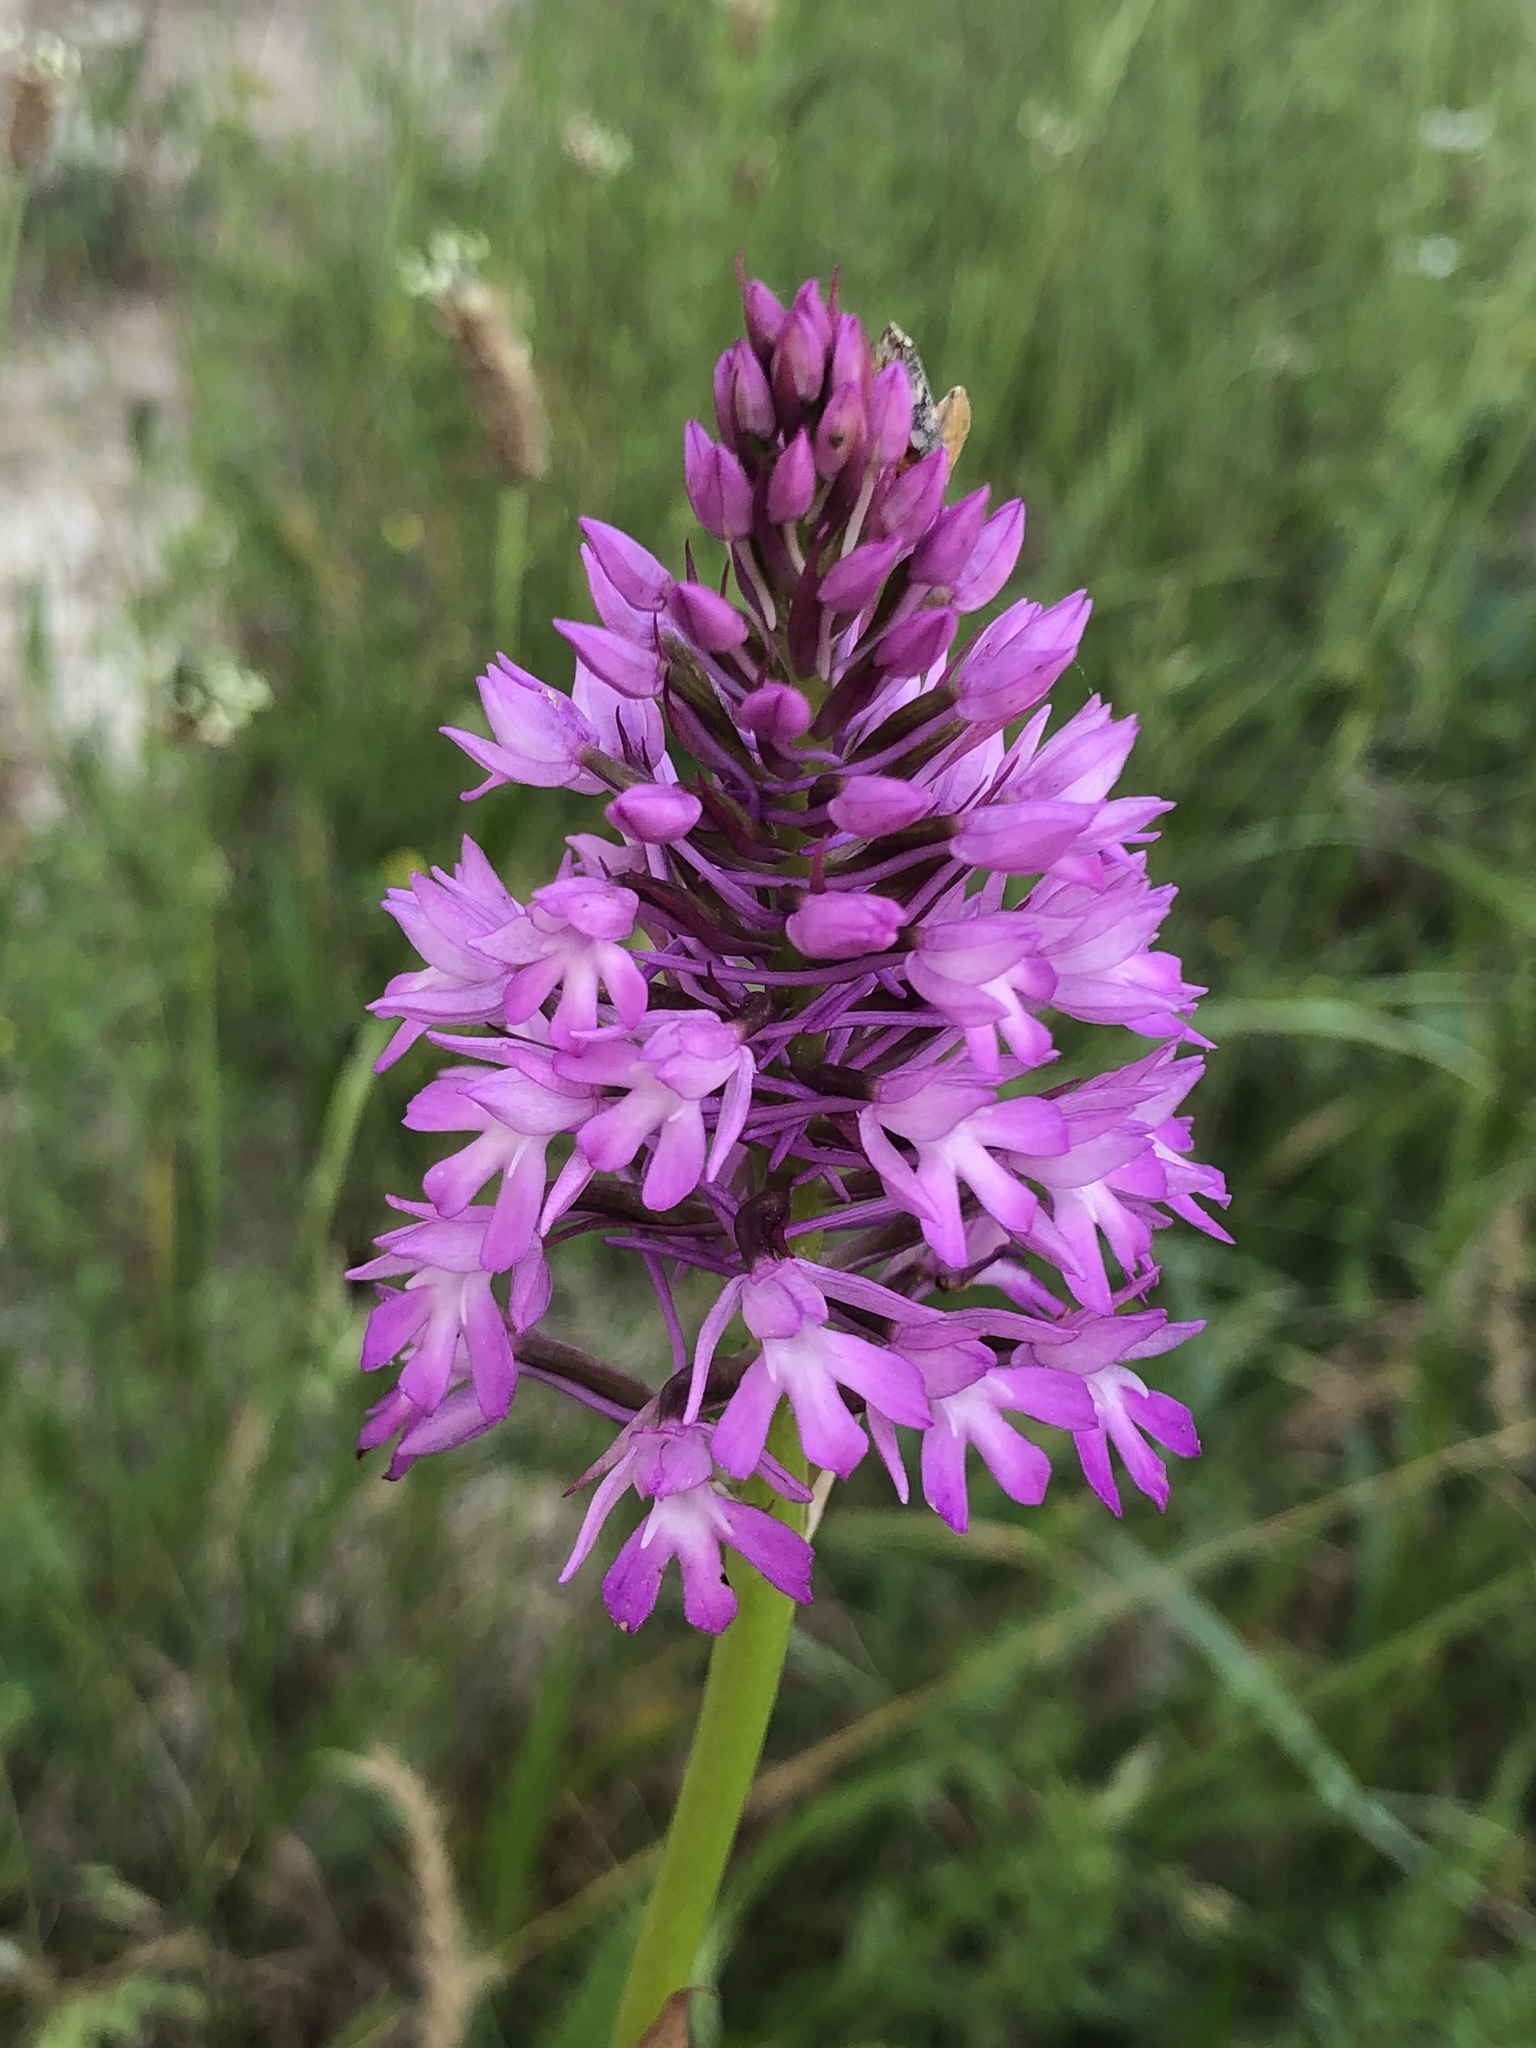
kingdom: Plantae
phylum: Tracheophyta
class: Liliopsida
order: Asparagales
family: Orchidaceae
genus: Anacamptis
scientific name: Anacamptis pyramidalis
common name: Pyramidal orchid
